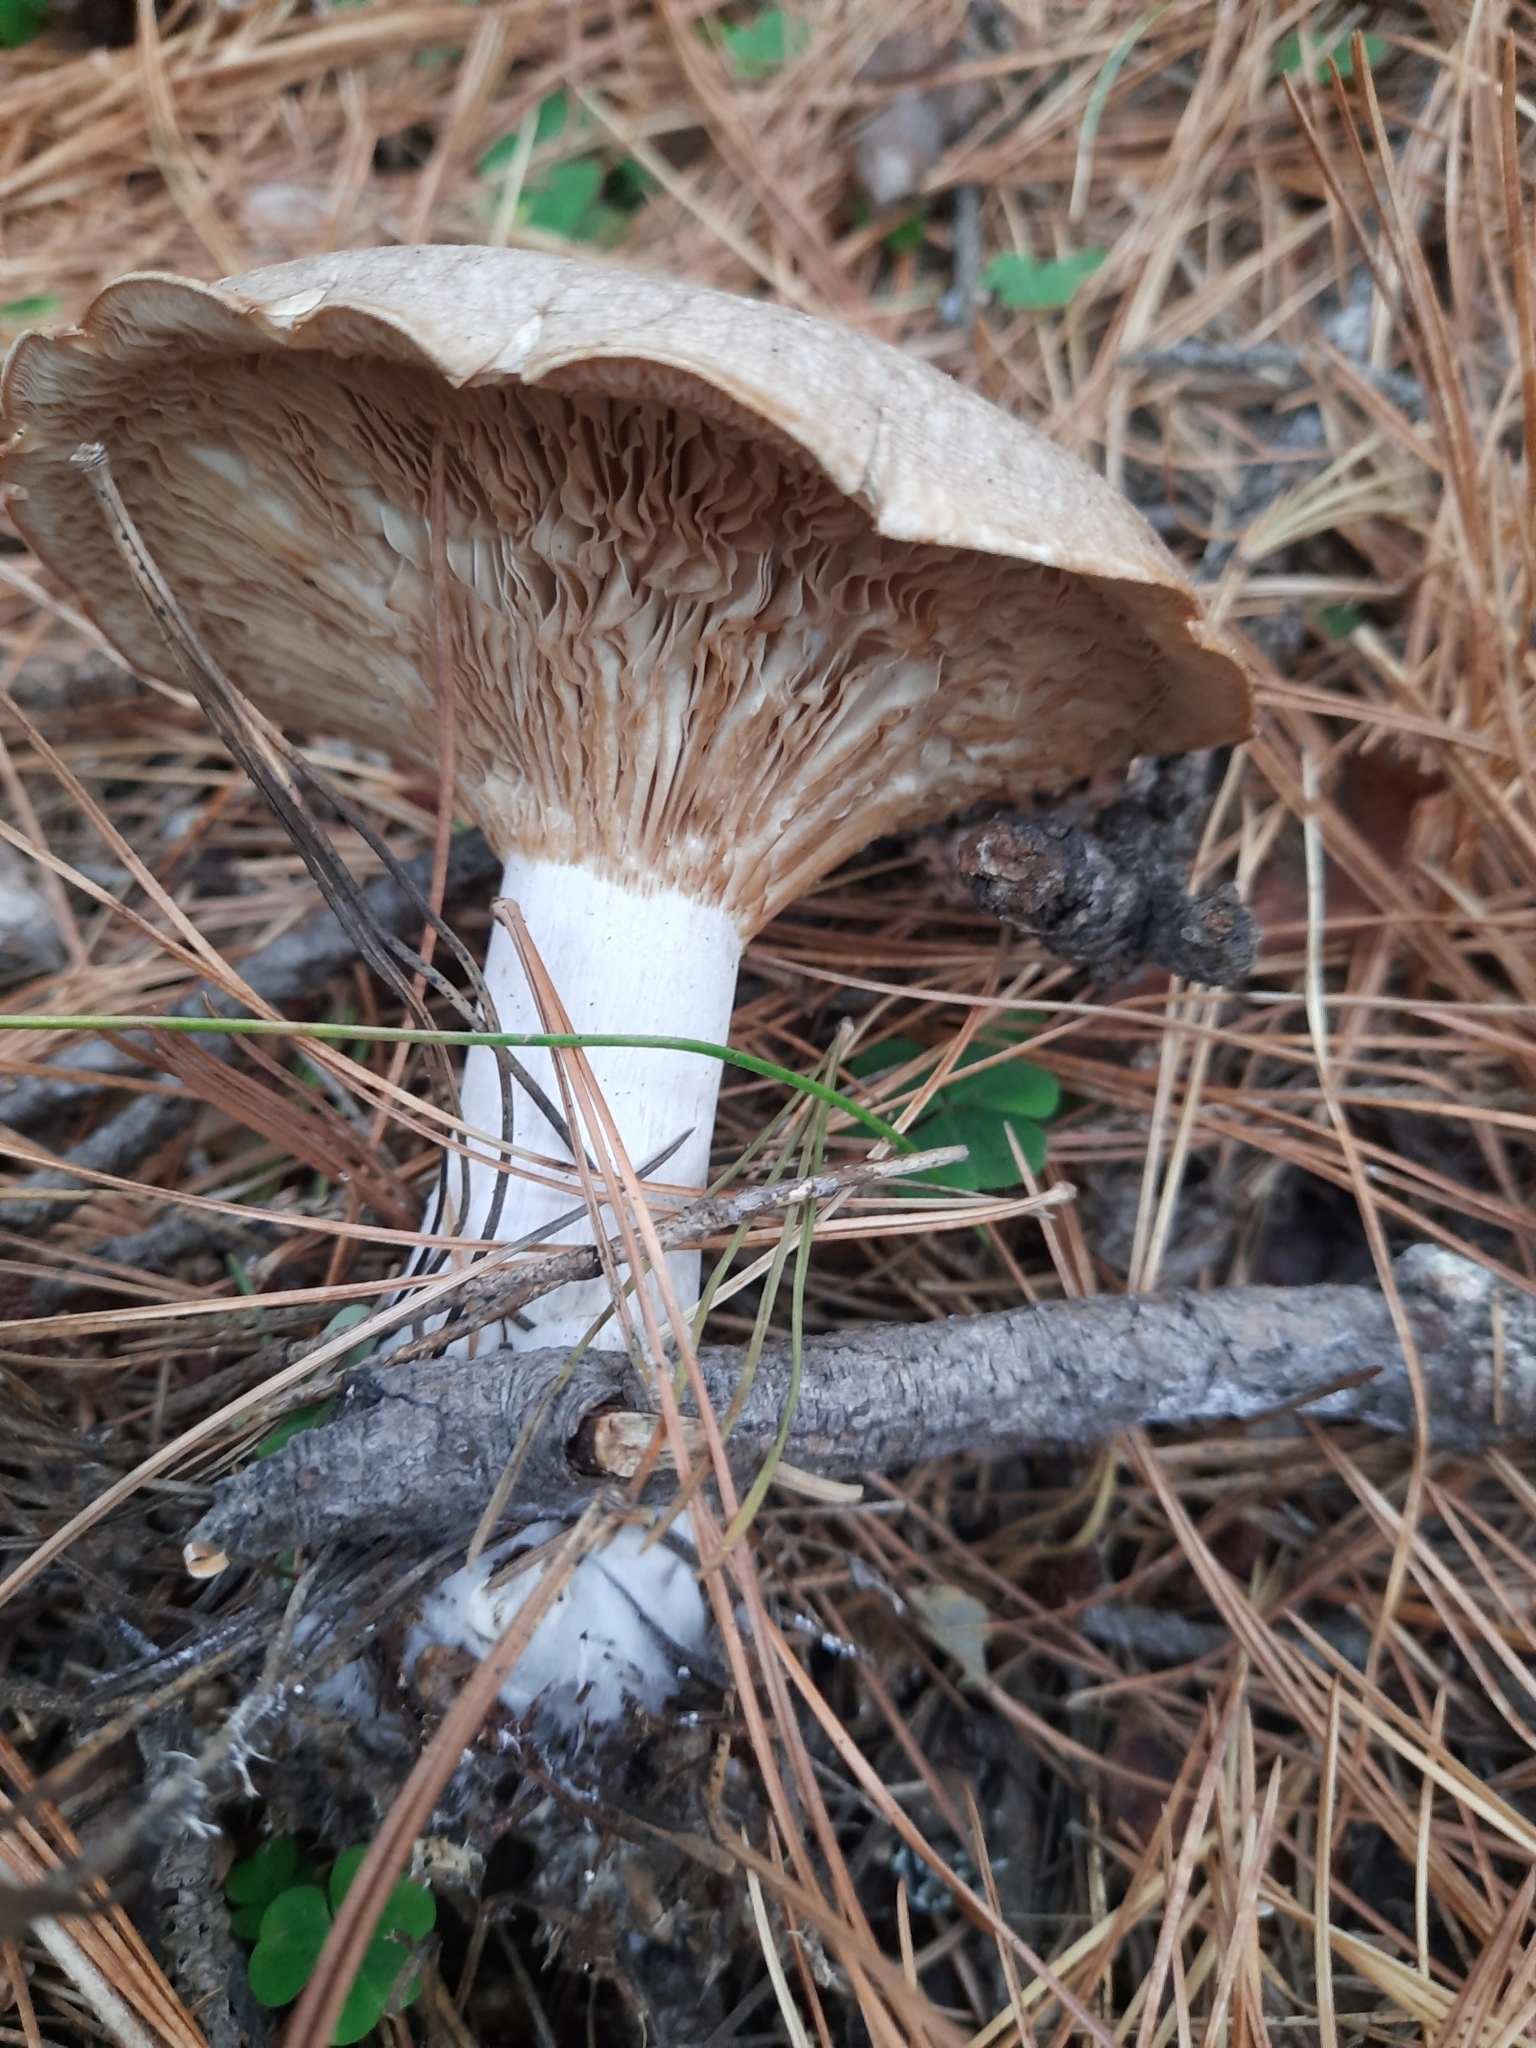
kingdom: Fungi
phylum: Basidiomycota
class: Agaricomycetes
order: Agaricales
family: Tricholomataceae
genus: Clitocybe
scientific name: Clitocybe nebularis
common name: Clouded agaric
